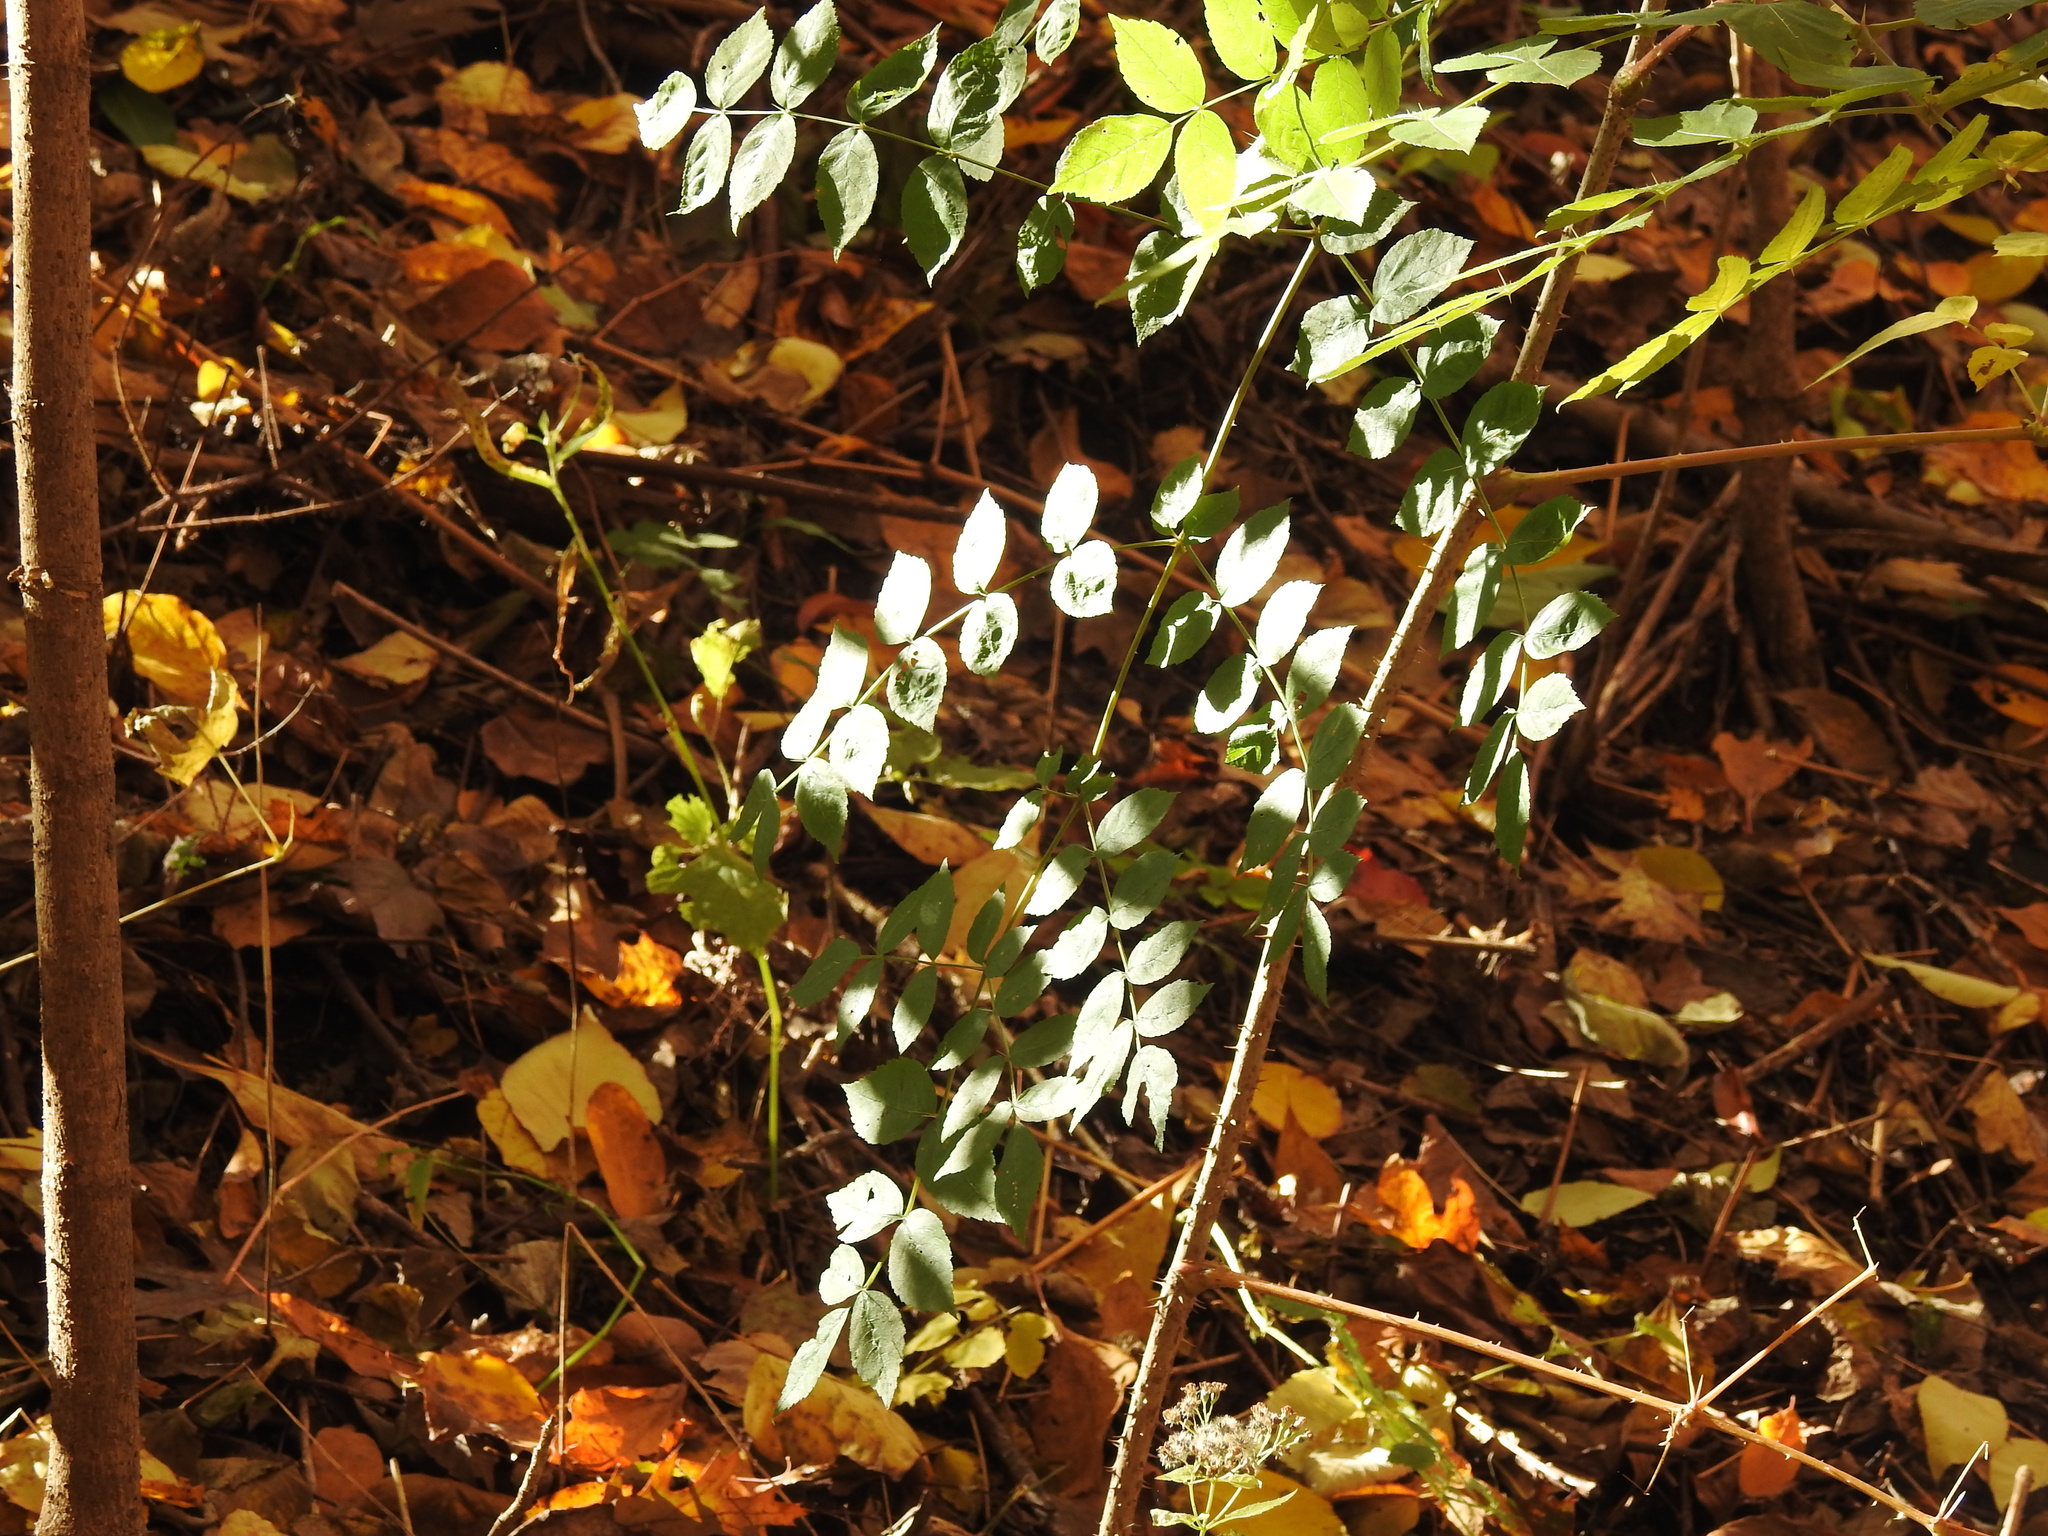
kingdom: Plantae
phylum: Tracheophyta
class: Magnoliopsida
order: Apiales
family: Araliaceae
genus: Aralia
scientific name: Aralia elata
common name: Japanese angelica-tree
